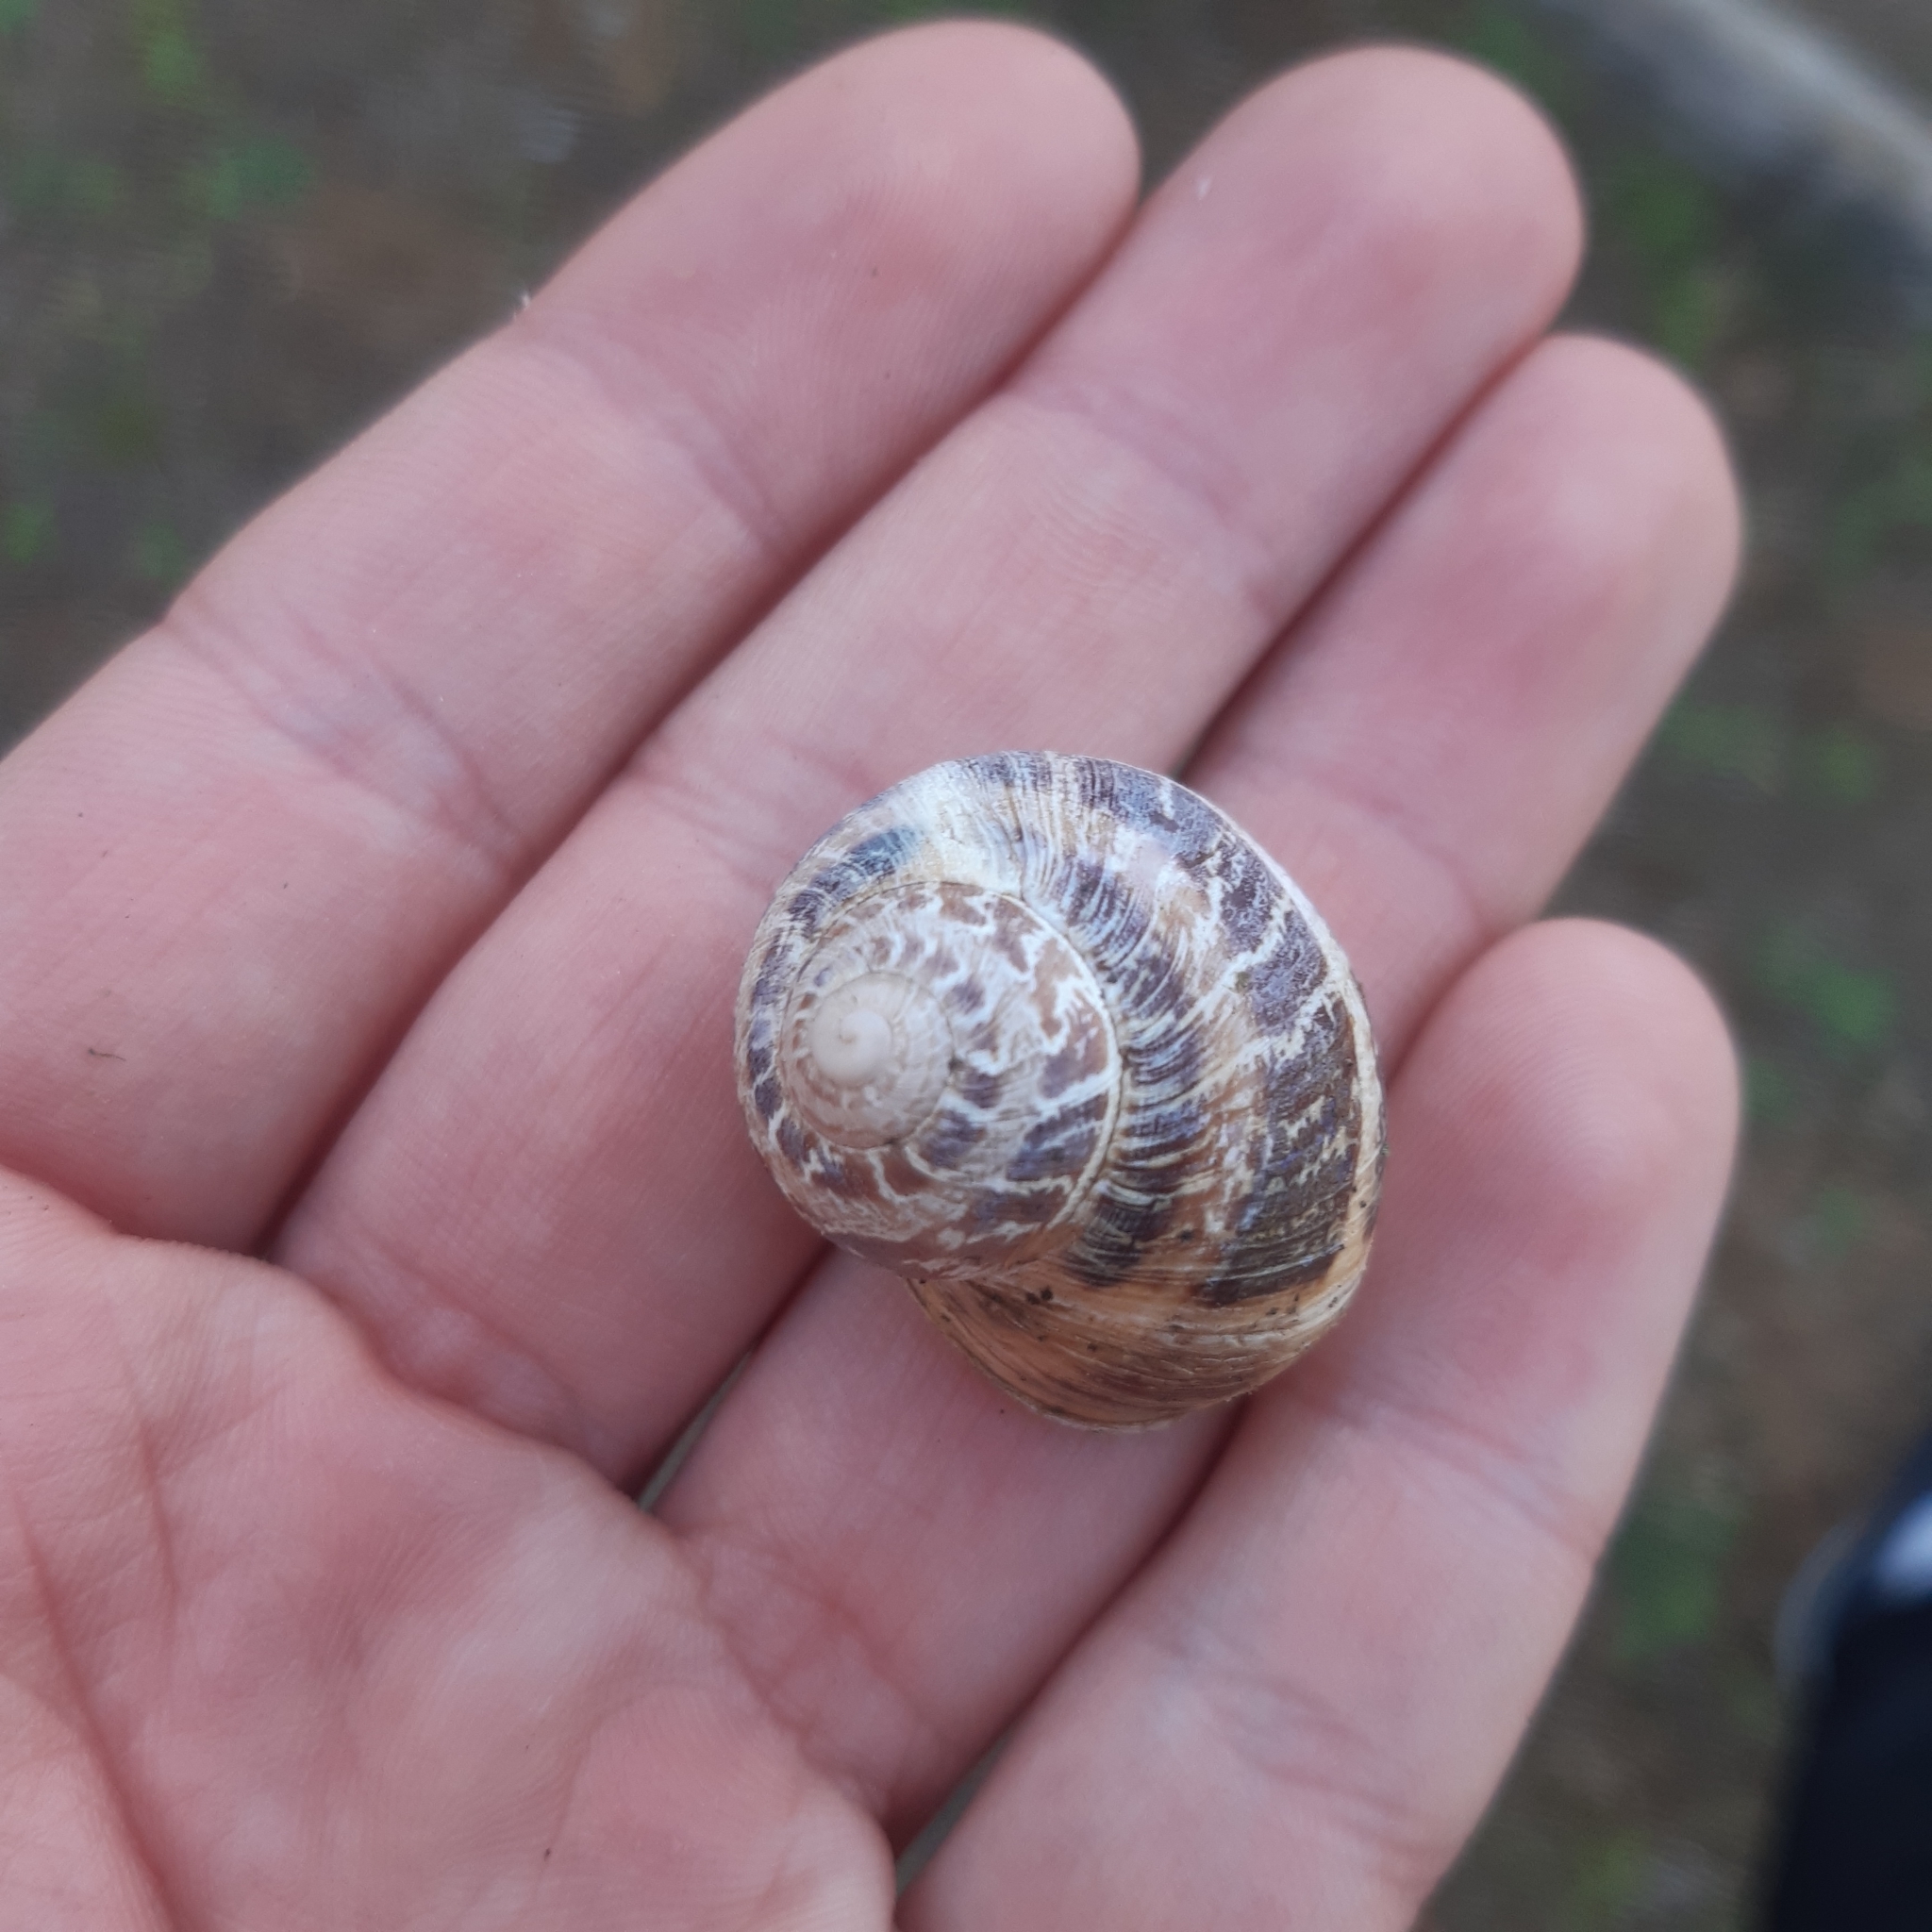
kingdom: Animalia
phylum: Mollusca
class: Gastropoda
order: Stylommatophora
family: Helicidae
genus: Cornu
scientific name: Cornu aspersum
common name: Brown garden snail
